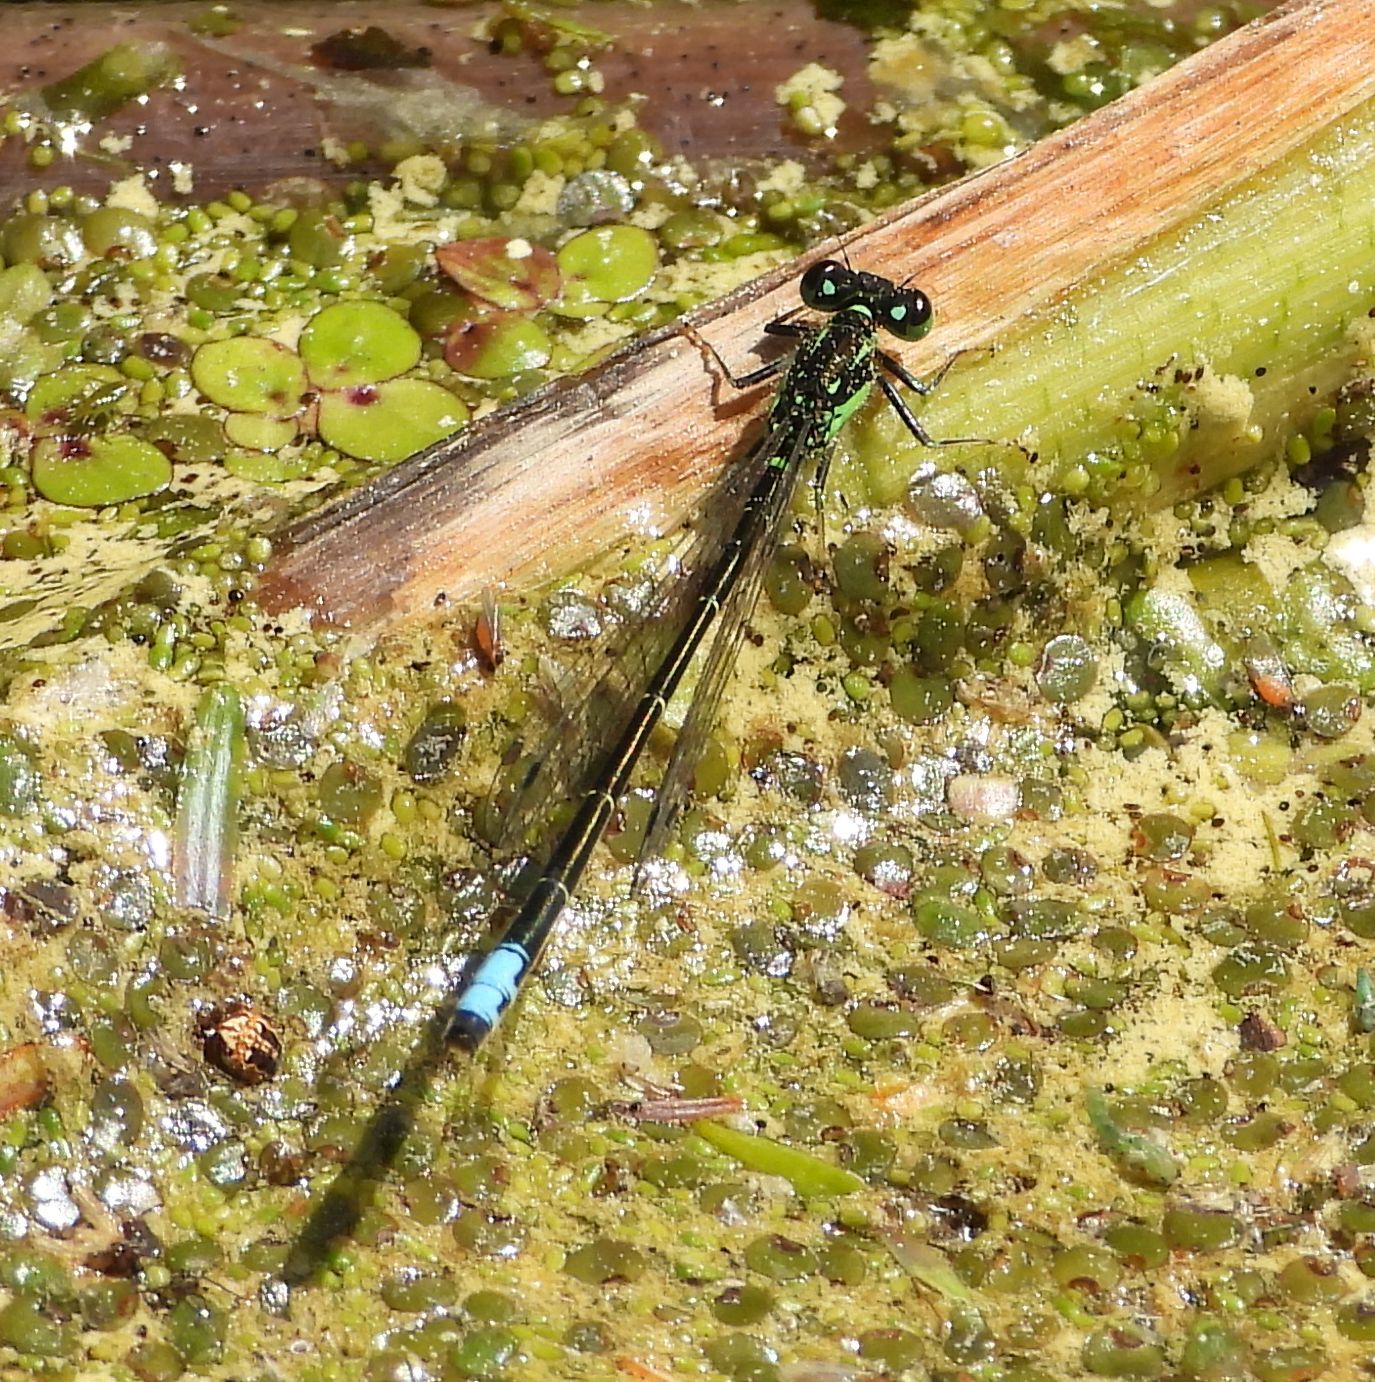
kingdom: Animalia
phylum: Arthropoda
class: Insecta
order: Odonata
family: Coenagrionidae
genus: Ischnura
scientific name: Ischnura posita
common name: Fragile forktail
